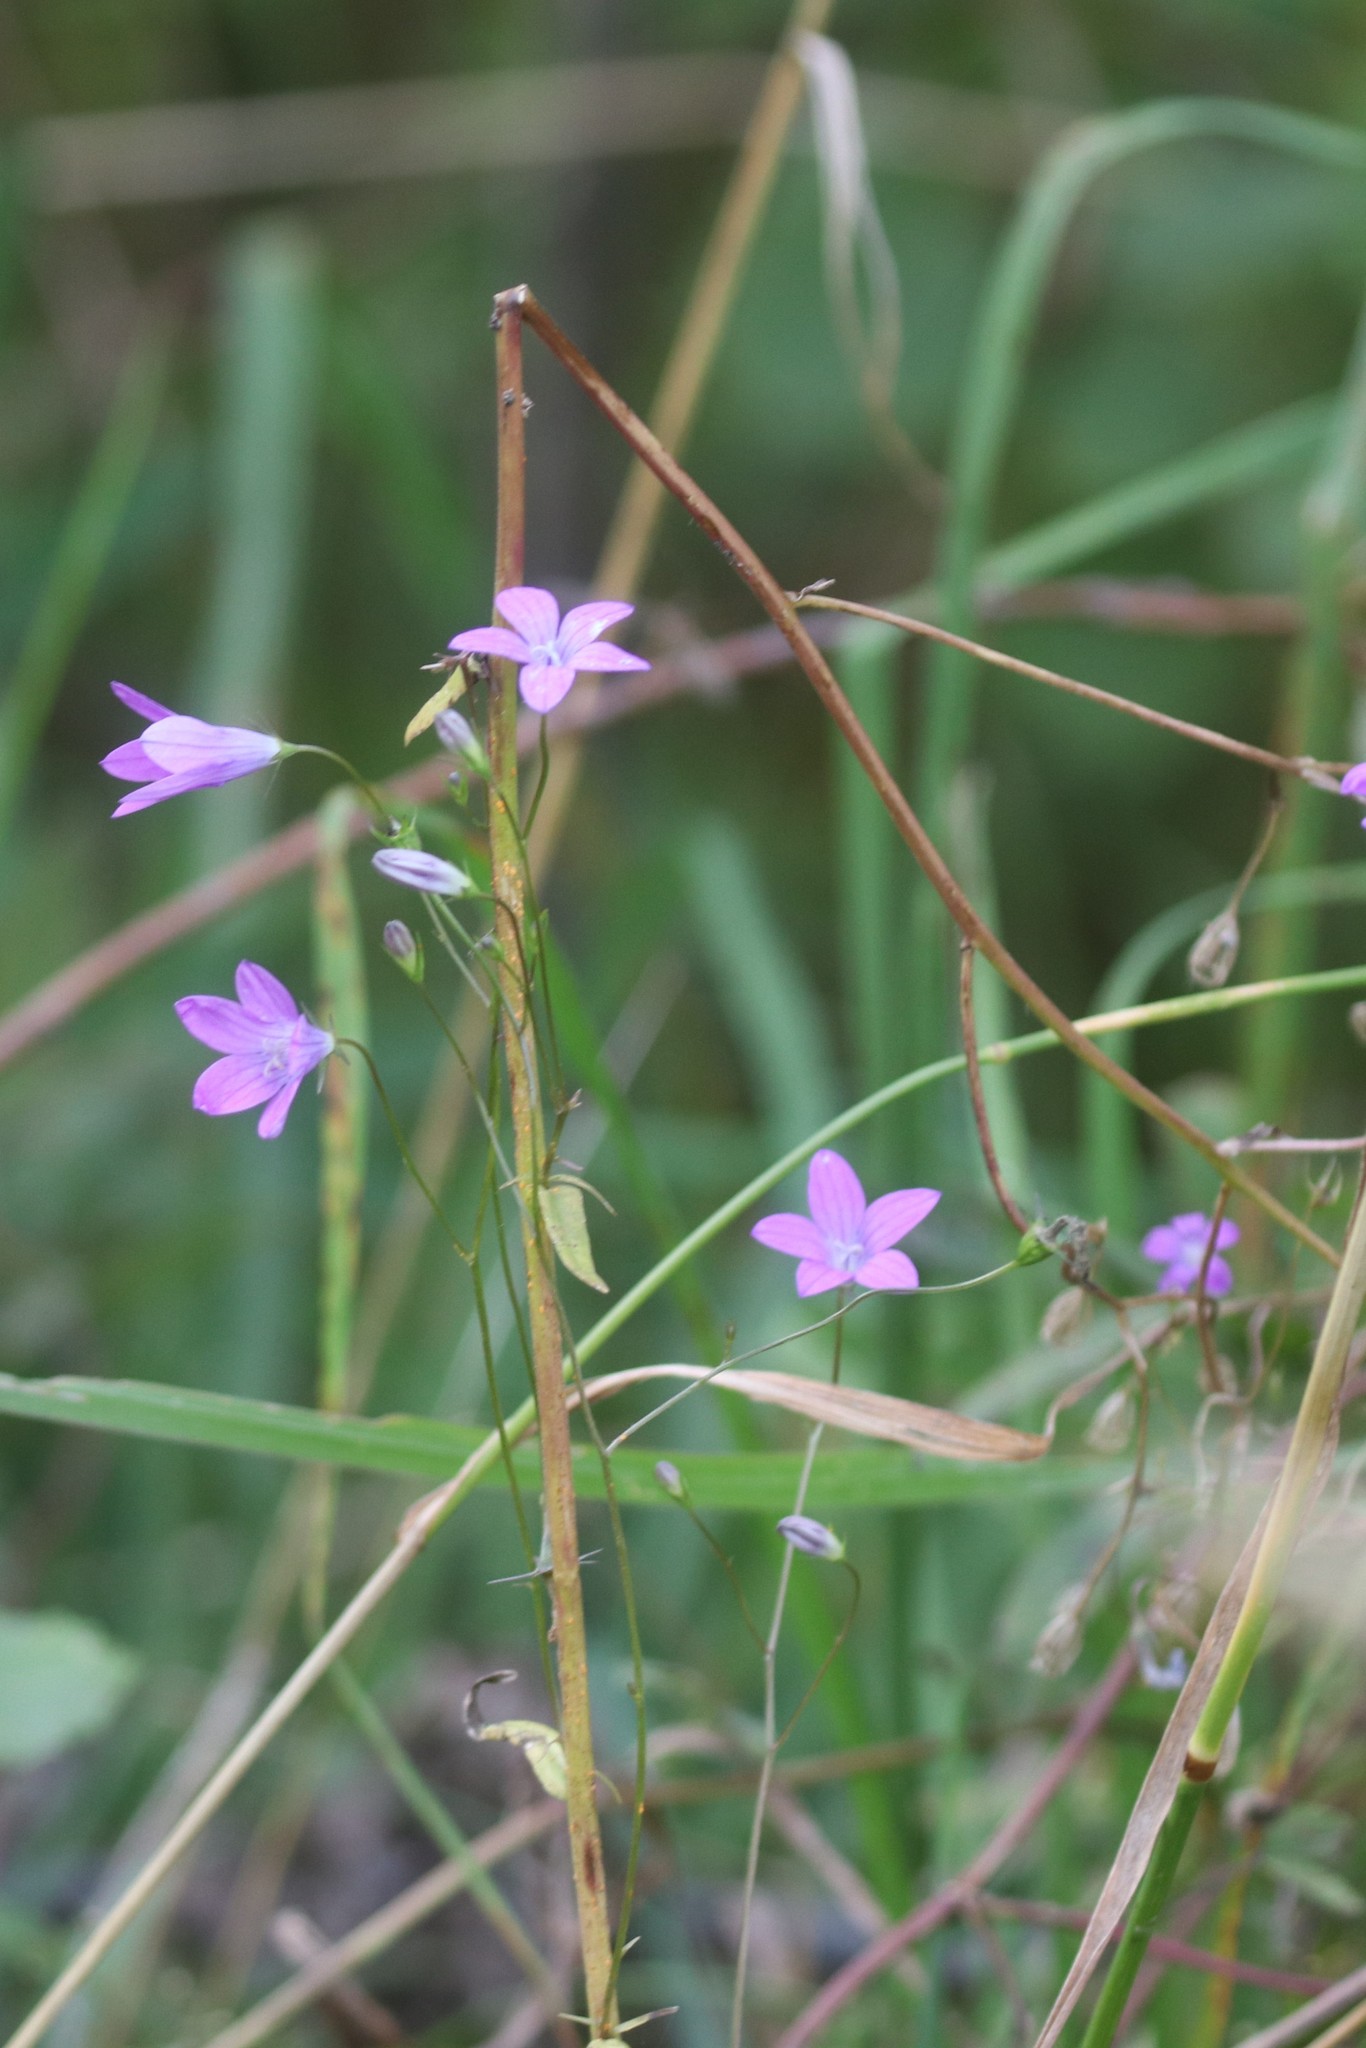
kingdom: Plantae
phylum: Tracheophyta
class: Magnoliopsida
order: Asterales
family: Campanulaceae
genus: Campanula
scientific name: Campanula patula
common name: Spreading bellflower
